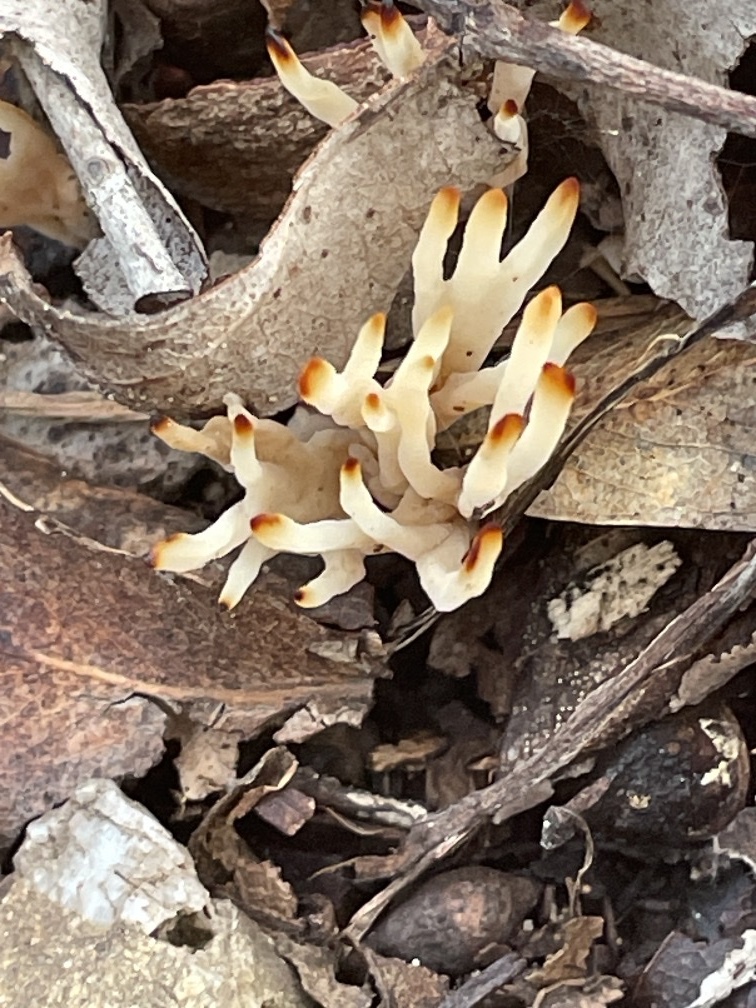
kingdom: Fungi
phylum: Basidiomycota
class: Agaricomycetes
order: Tremellodendropsidales
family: Tremellodendropsidaceae
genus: Tremellodendropsis
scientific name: Tremellodendropsis tuberosa
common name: Ashen coral
